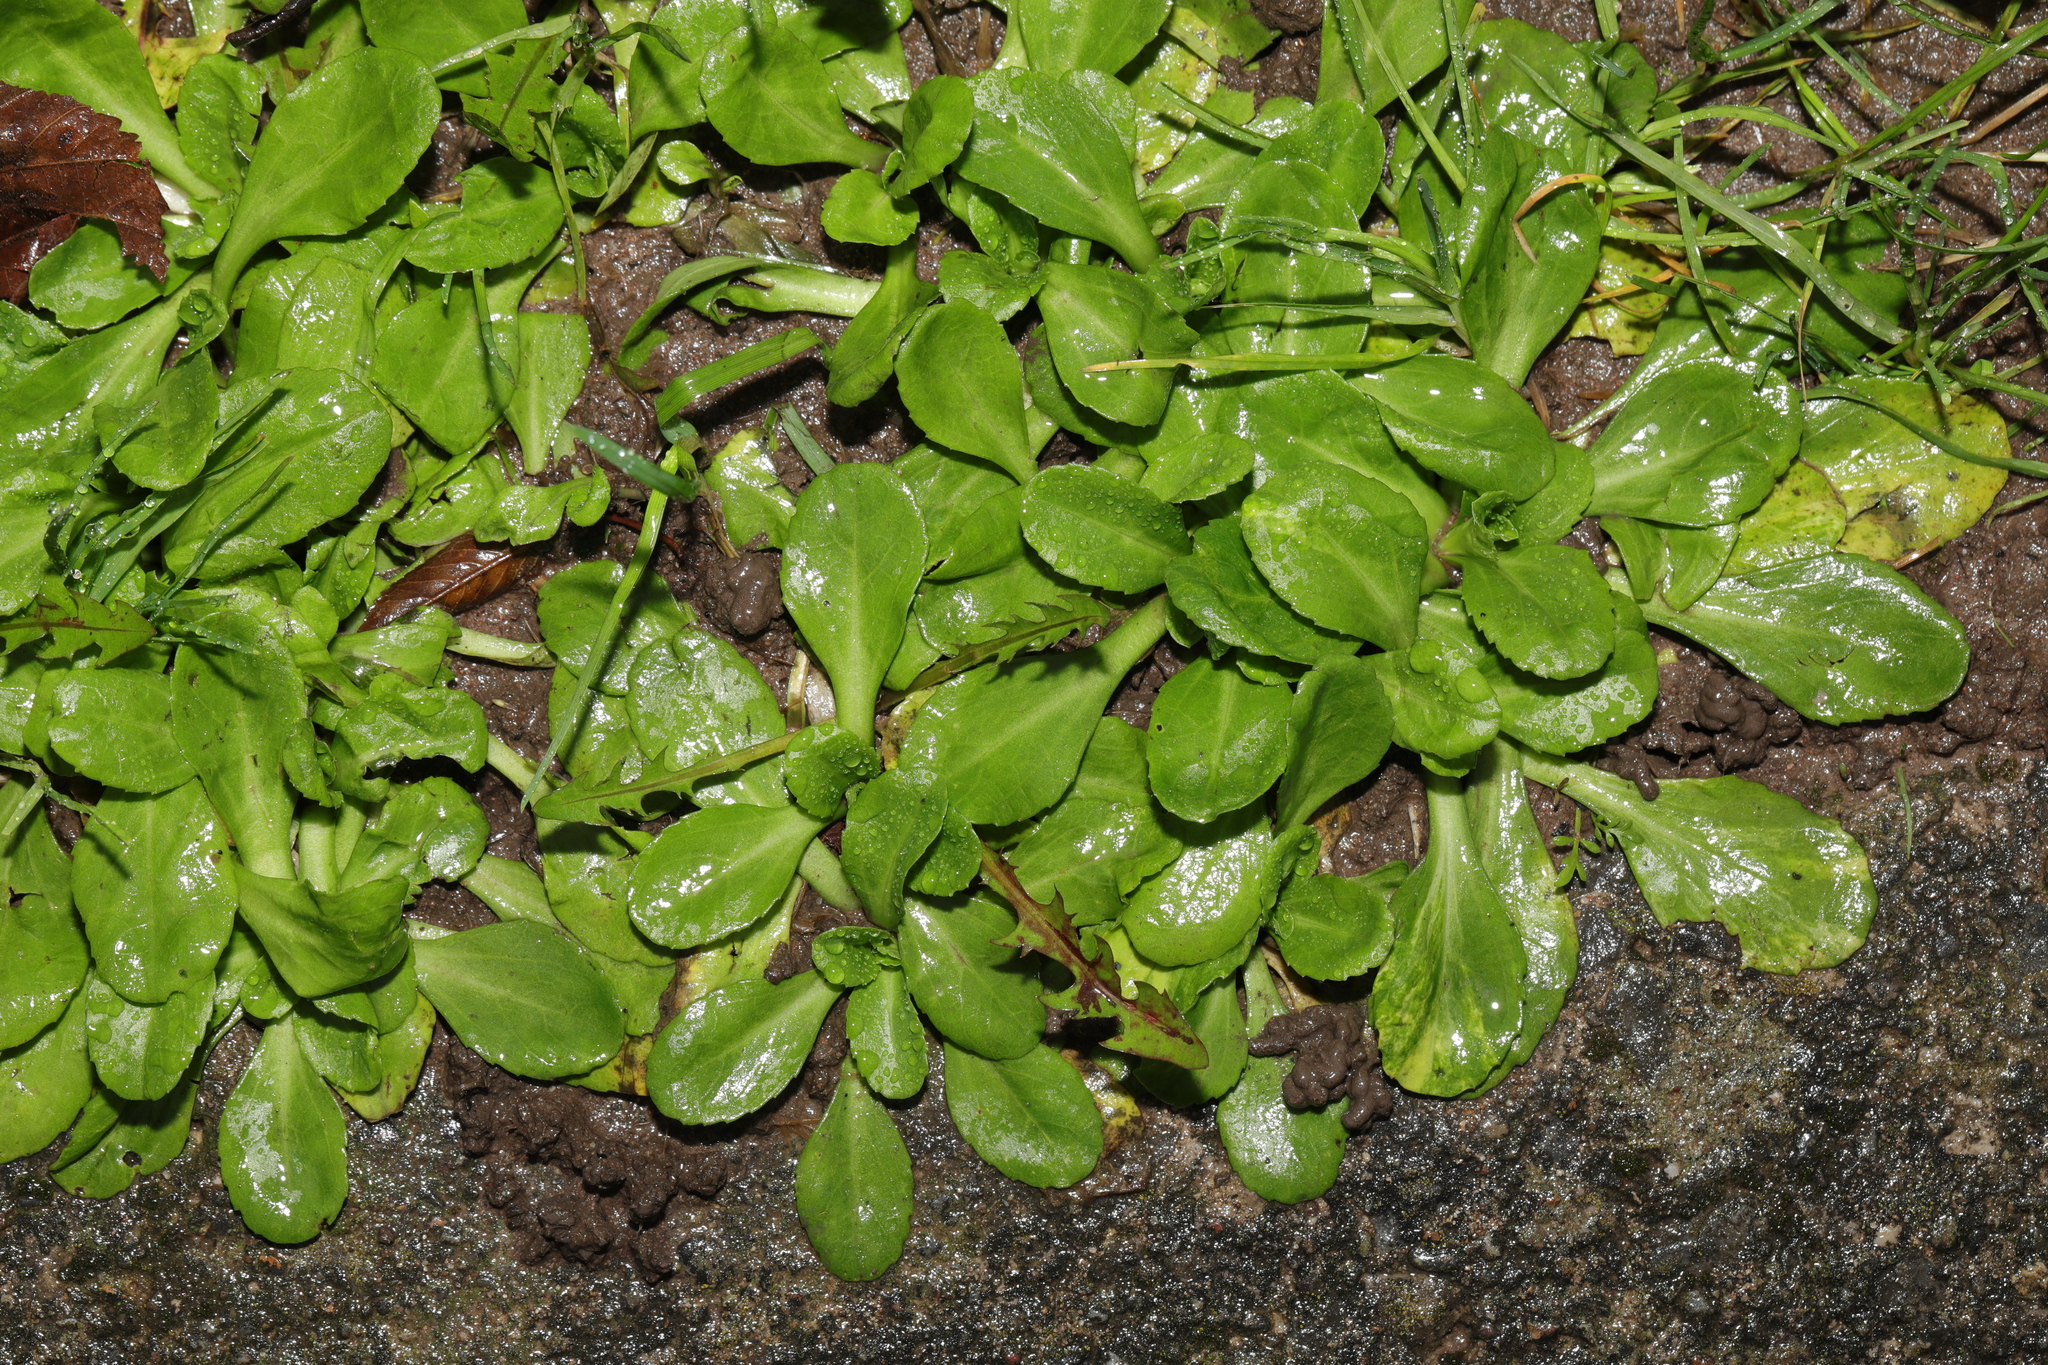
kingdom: Plantae
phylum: Tracheophyta
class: Magnoliopsida
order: Asterales
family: Asteraceae
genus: Bellis
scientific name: Bellis perennis
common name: Lawndaisy
